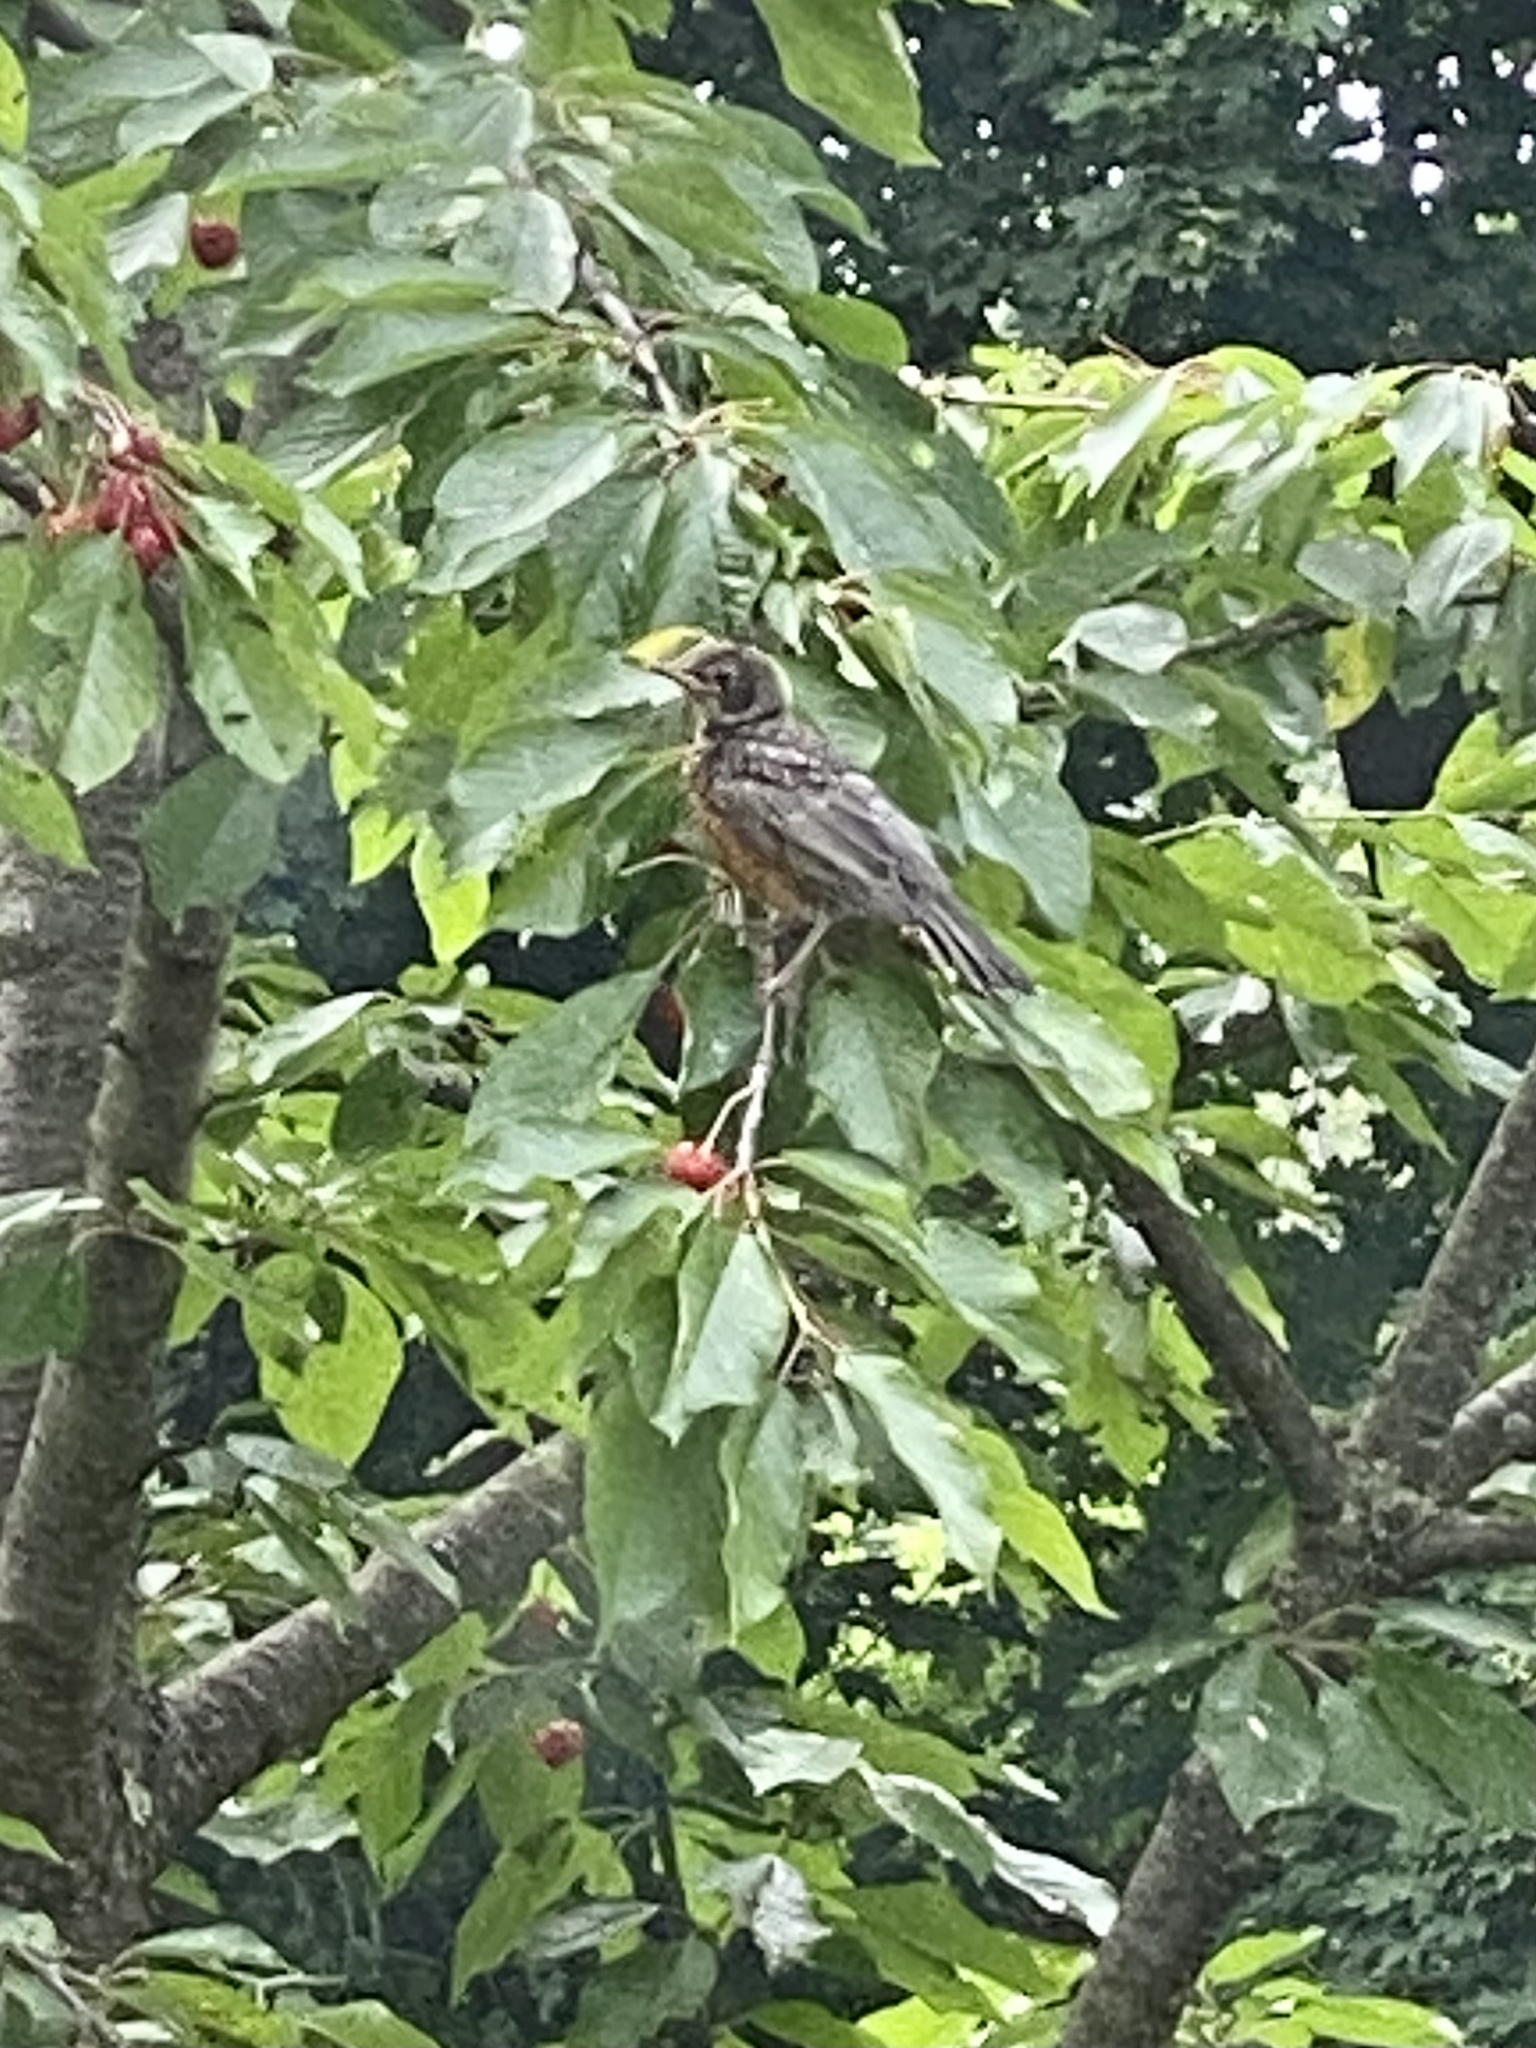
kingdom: Animalia
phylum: Chordata
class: Aves
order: Passeriformes
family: Turdidae
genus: Turdus
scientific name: Turdus migratorius
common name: American robin
